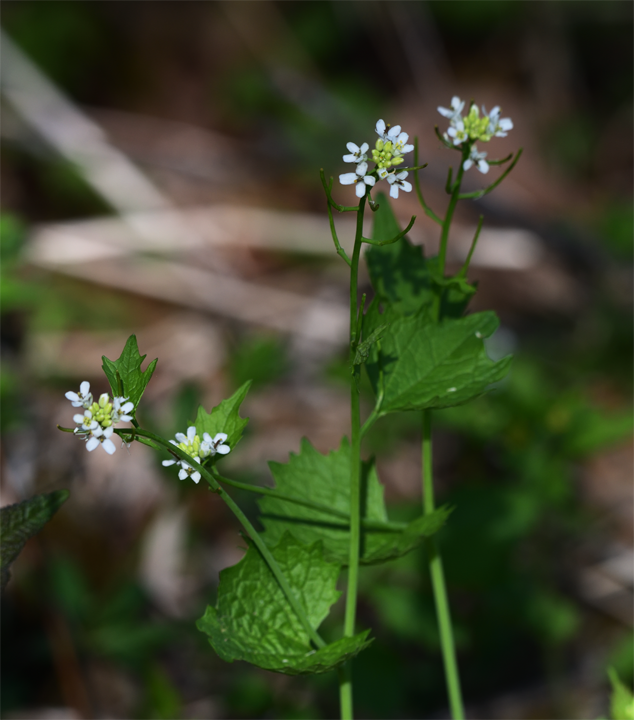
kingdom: Plantae
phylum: Tracheophyta
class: Magnoliopsida
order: Brassicales
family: Brassicaceae
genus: Alliaria
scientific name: Alliaria petiolata
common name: Garlic mustard
